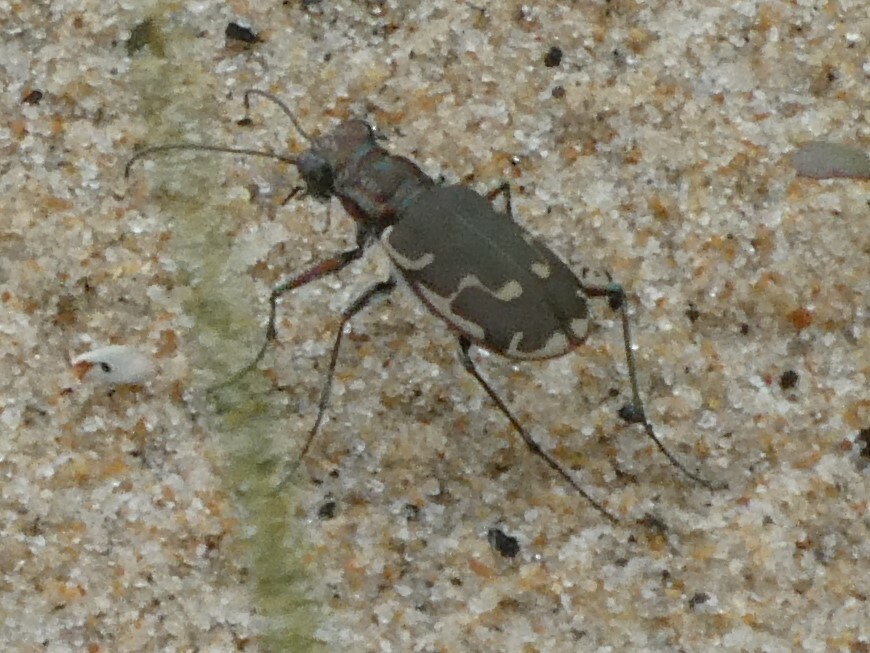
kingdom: Animalia
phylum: Arthropoda
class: Insecta
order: Coleoptera
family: Carabidae
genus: Cicindela
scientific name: Cicindela repanda
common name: Bronzed tiger beetle
